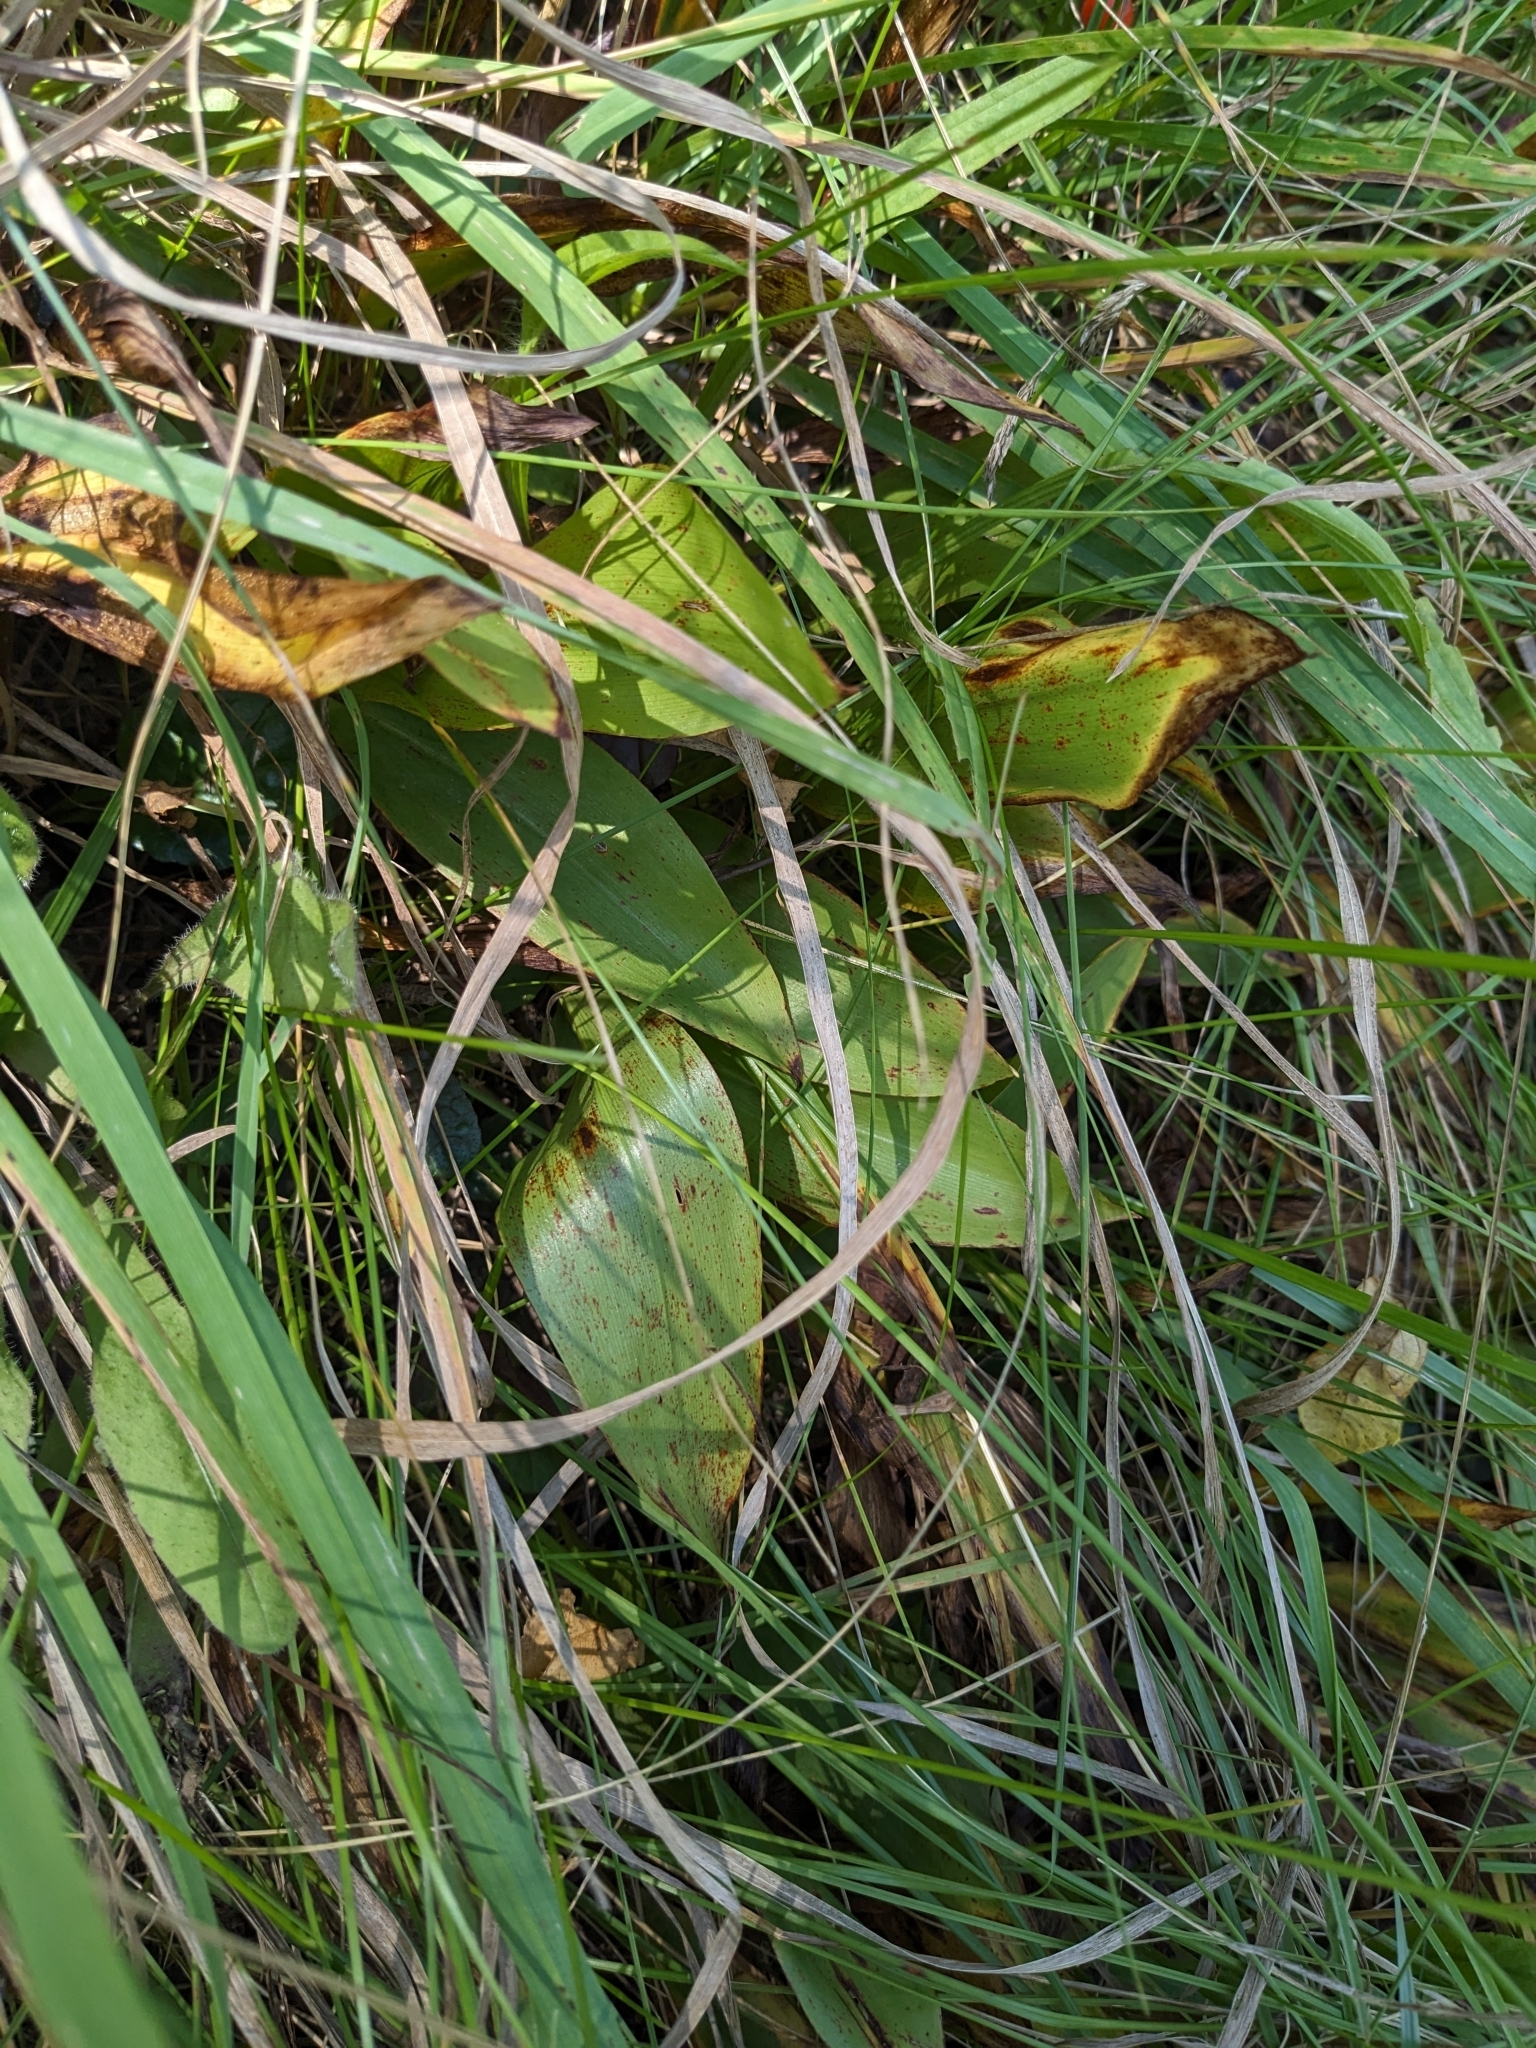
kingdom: Plantae
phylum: Tracheophyta
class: Liliopsida
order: Asparagales
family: Asparagaceae
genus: Convallaria
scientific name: Convallaria majalis
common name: Lily-of-the-valley
